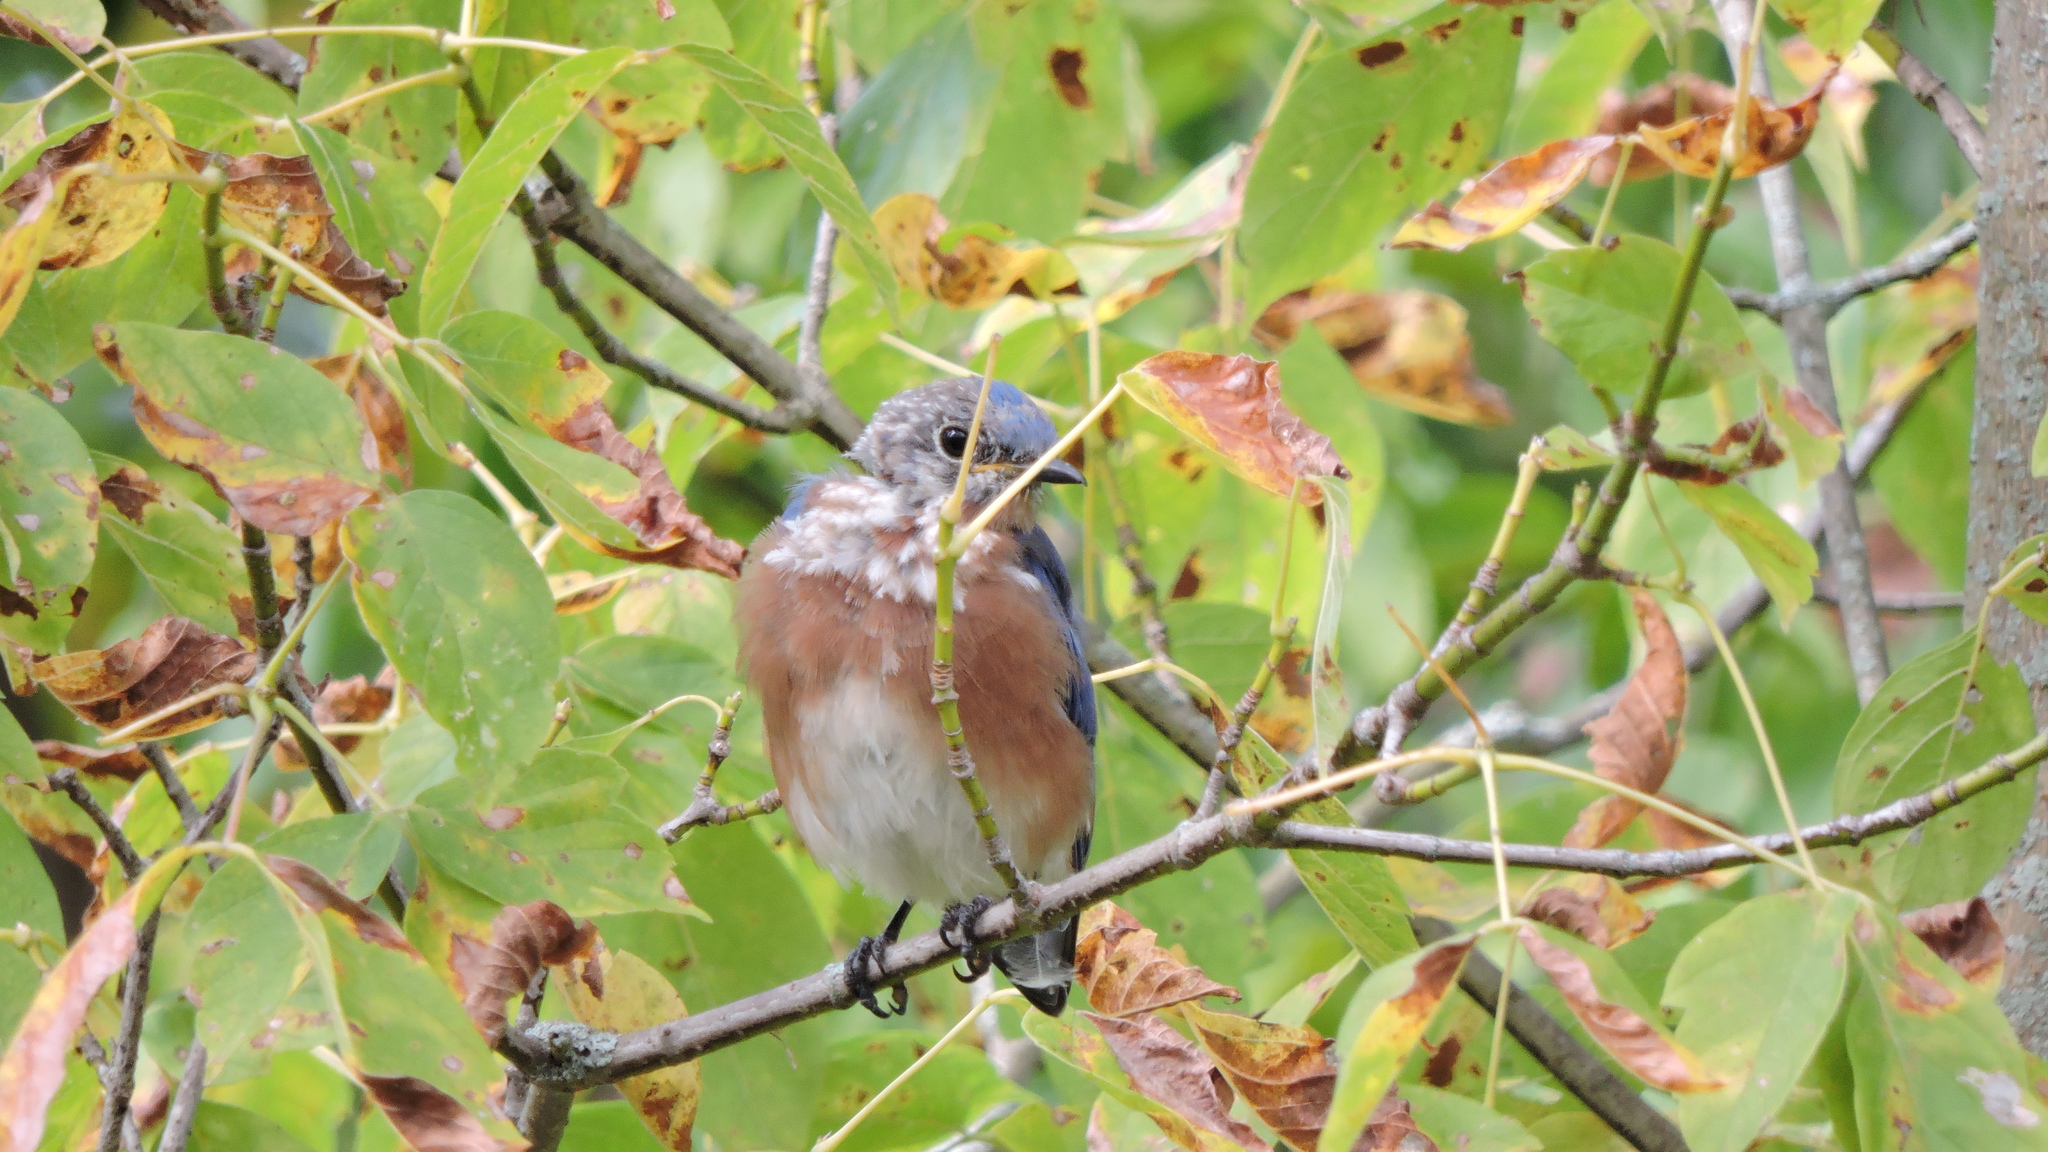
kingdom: Animalia
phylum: Chordata
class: Aves
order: Passeriformes
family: Turdidae
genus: Sialia
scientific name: Sialia sialis
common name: Eastern bluebird
